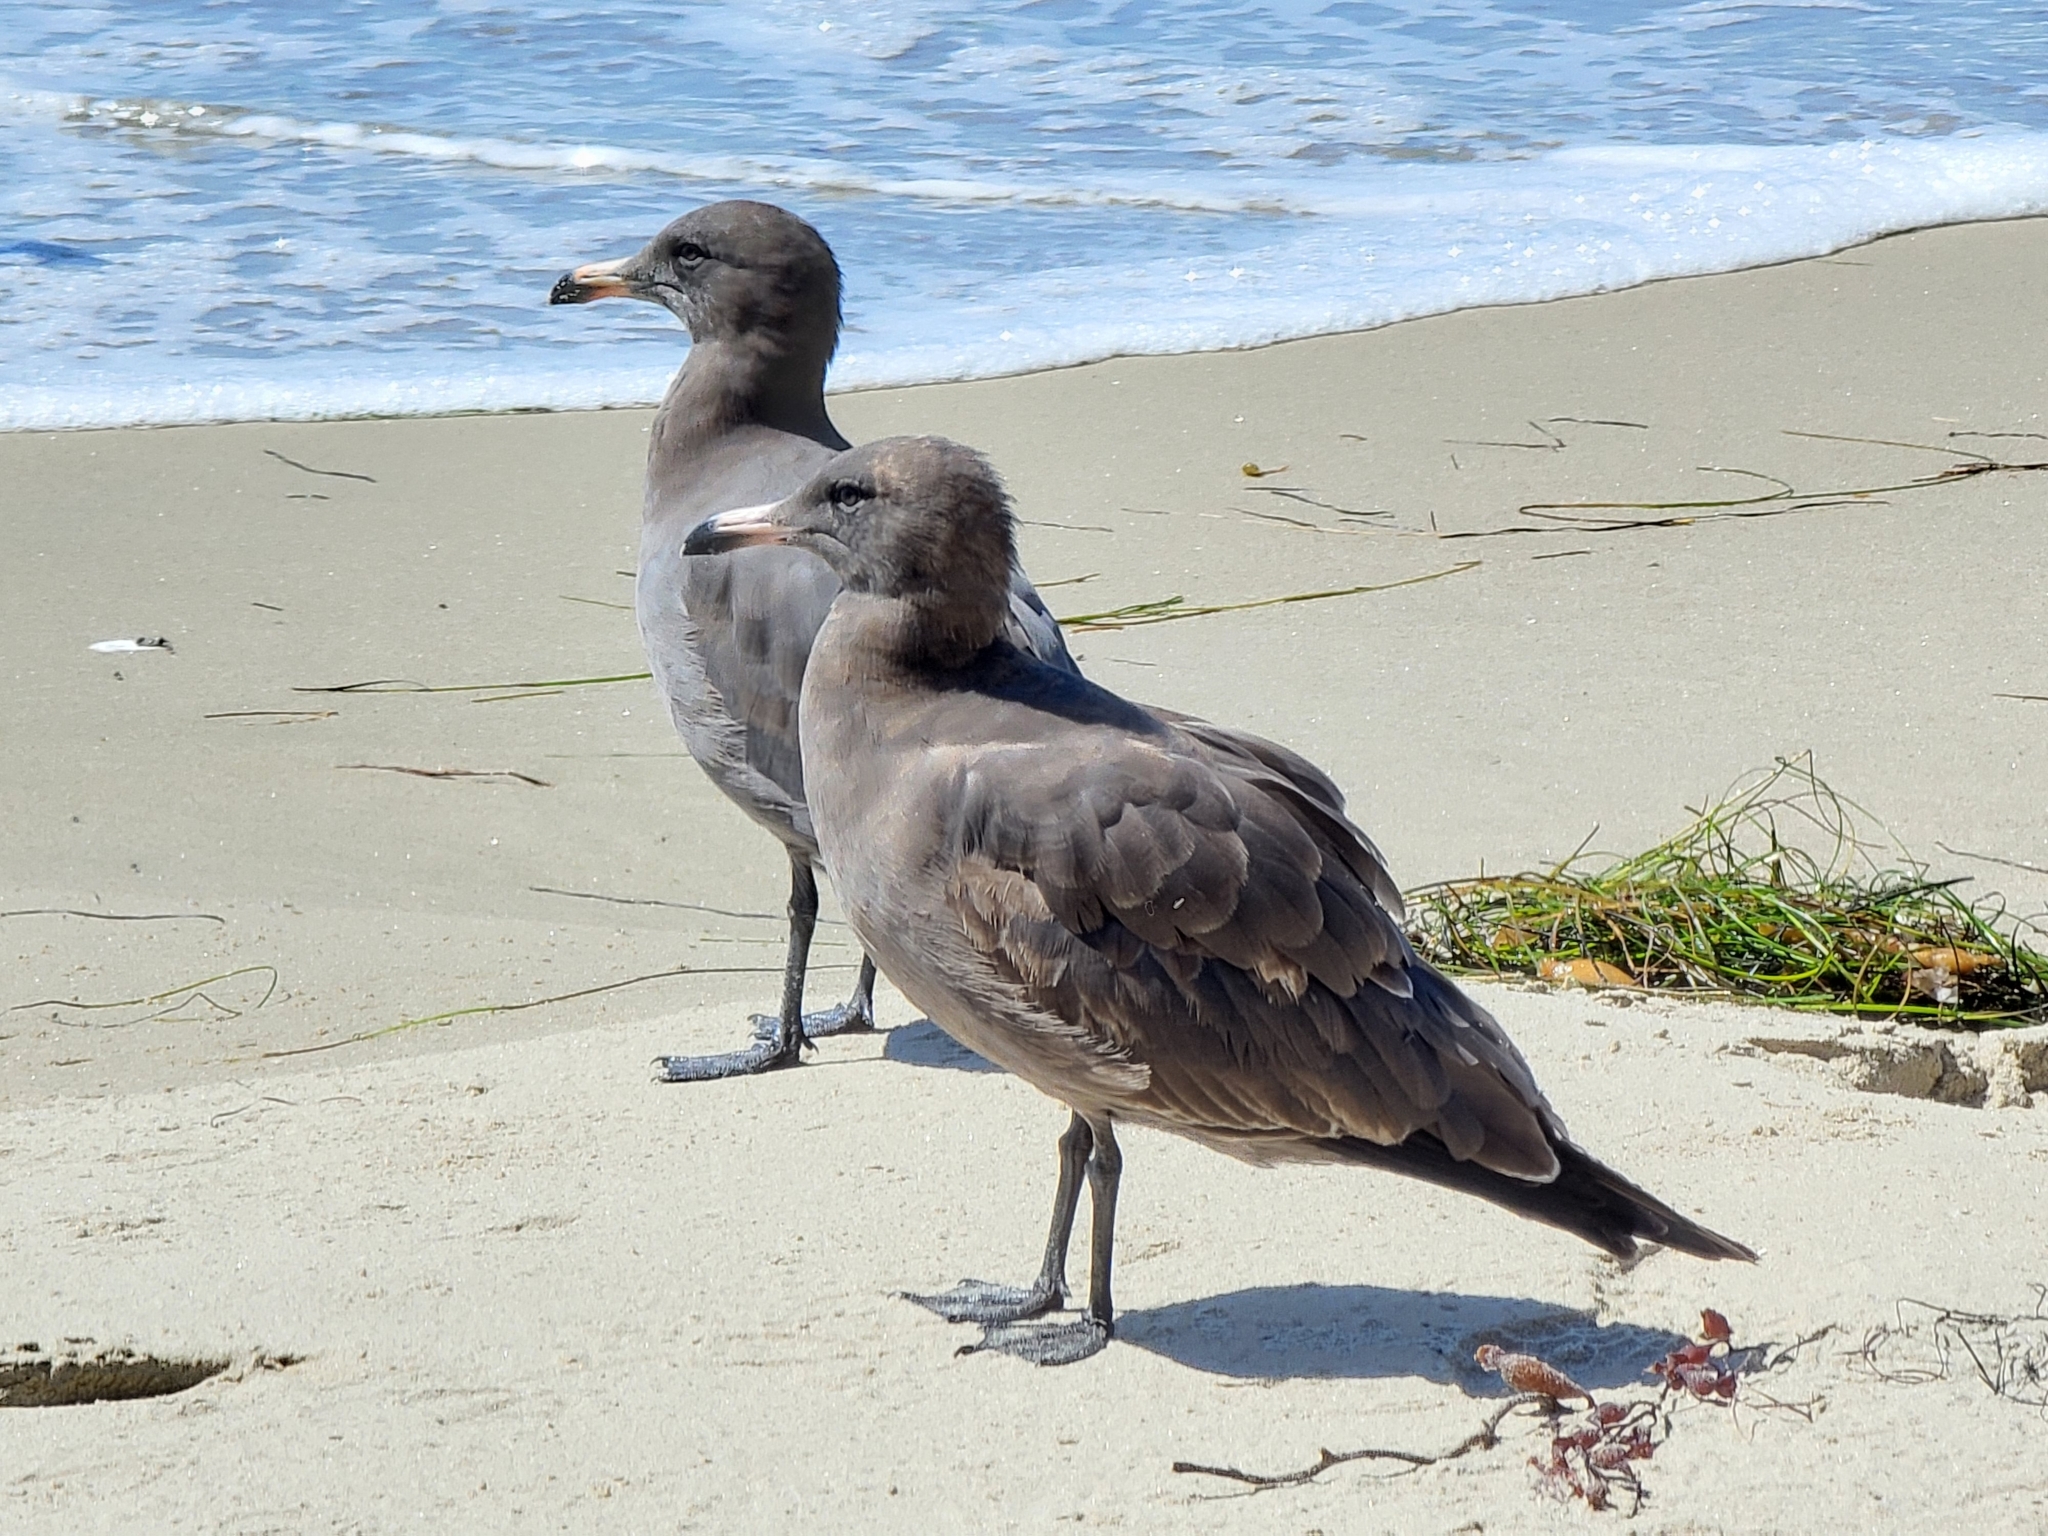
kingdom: Animalia
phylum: Chordata
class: Aves
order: Charadriiformes
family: Laridae
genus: Larus
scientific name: Larus heermanni
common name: Heermann's gull
